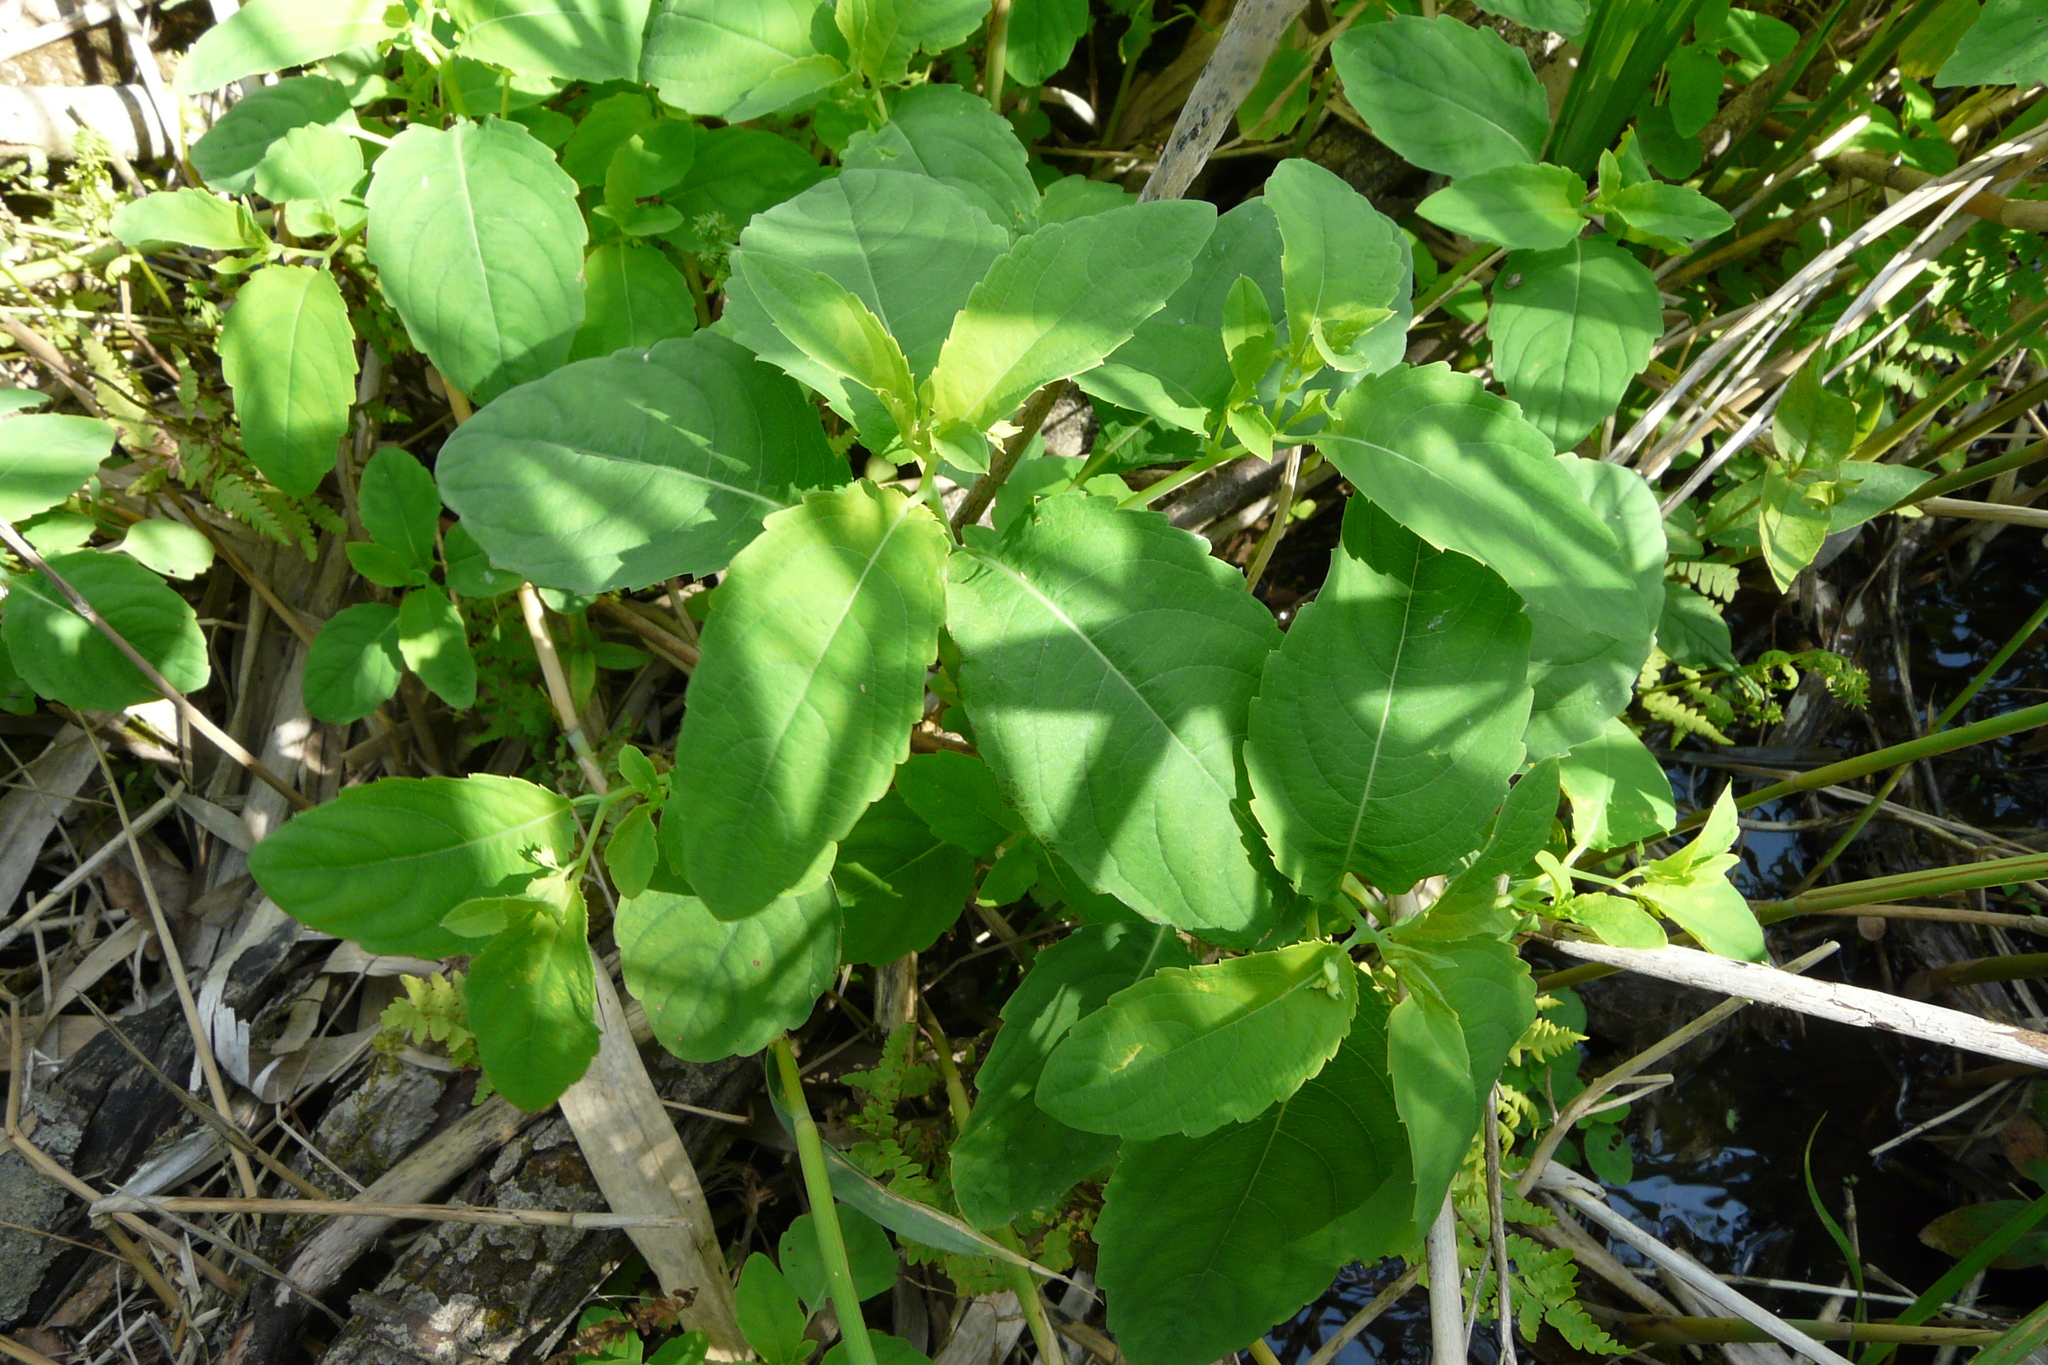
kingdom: Plantae
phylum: Tracheophyta
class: Magnoliopsida
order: Ericales
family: Balsaminaceae
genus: Impatiens
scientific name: Impatiens noli-tangere
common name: Touch-me-not balsam
